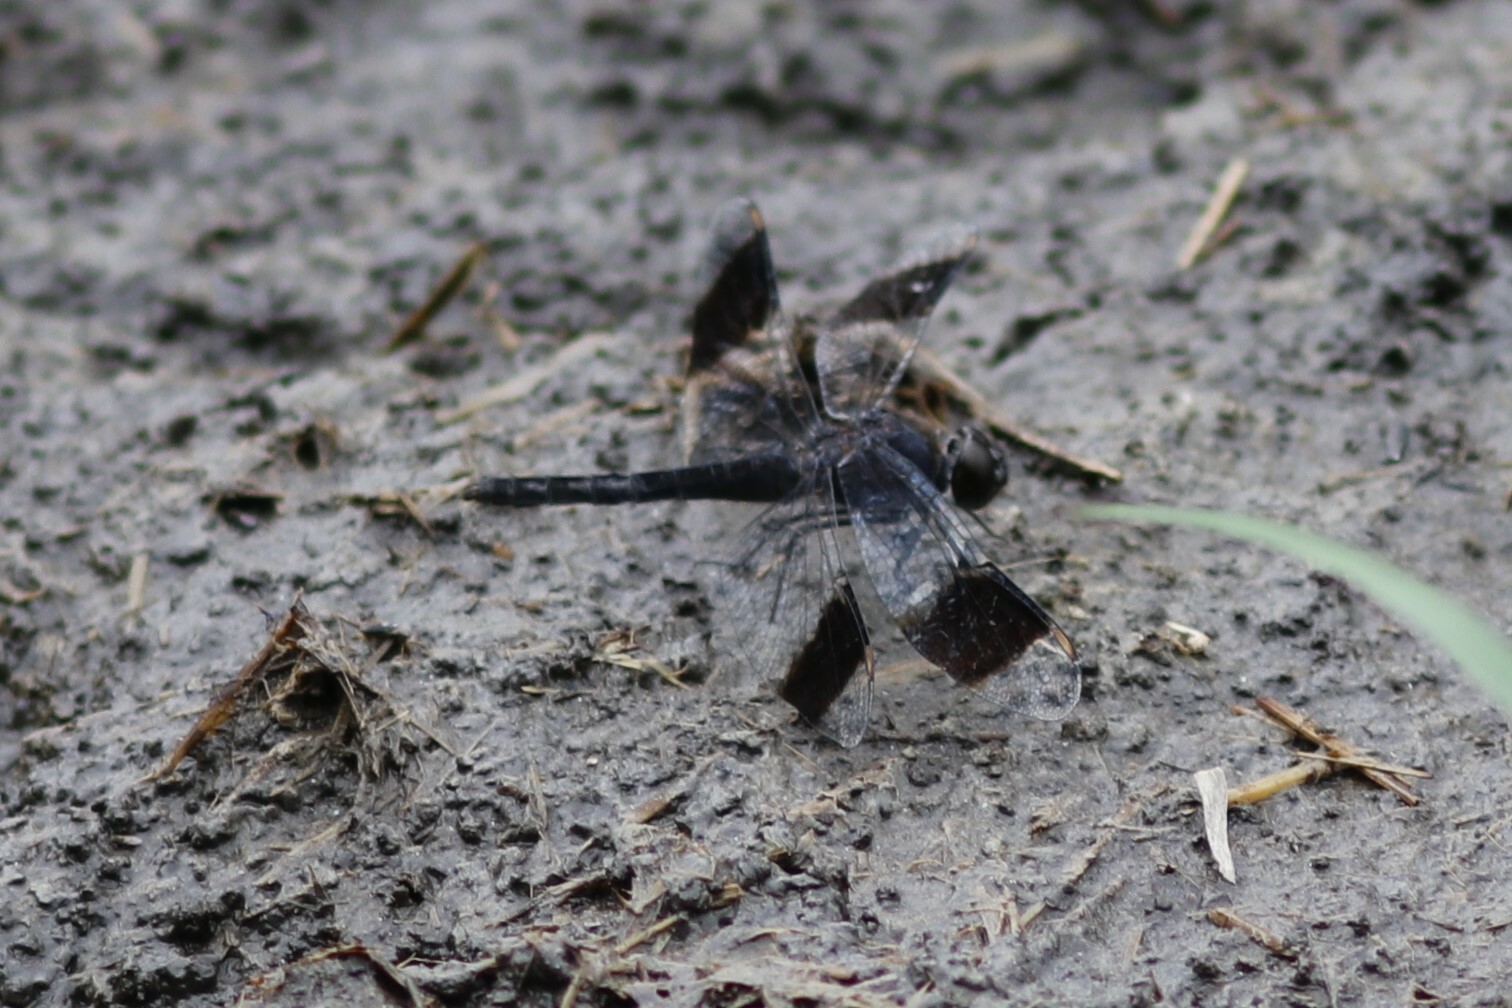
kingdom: Animalia
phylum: Arthropoda
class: Insecta
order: Odonata
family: Libellulidae
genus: Brachythemis
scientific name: Brachythemis leucosticta
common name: Banded groundling
